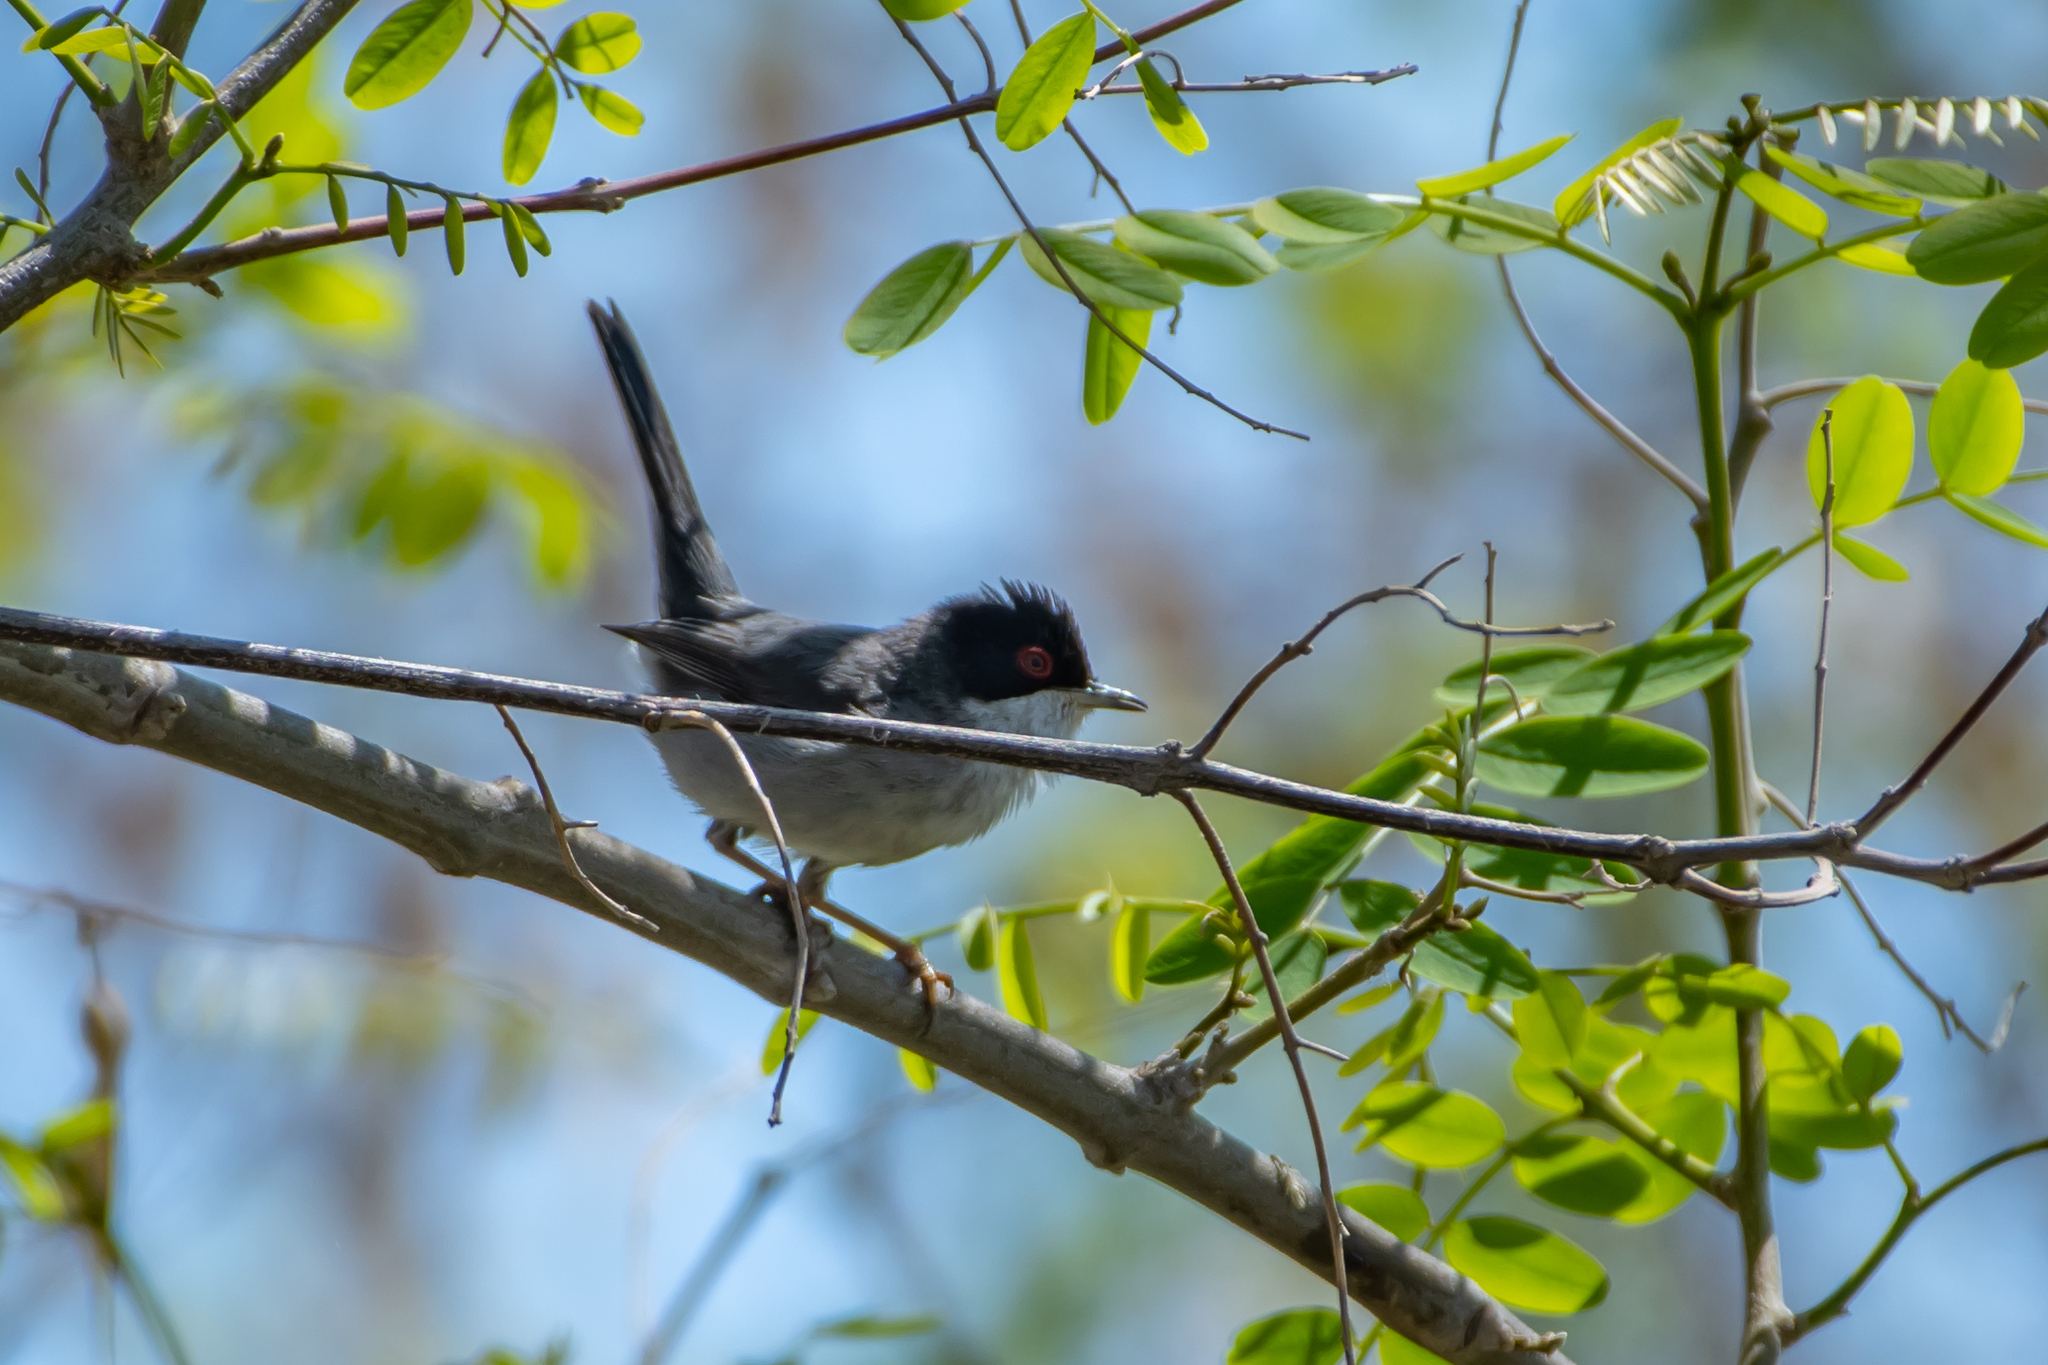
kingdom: Animalia
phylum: Chordata
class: Aves
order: Passeriformes
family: Sylviidae
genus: Curruca
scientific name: Curruca melanocephala
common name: Sardinian warbler
